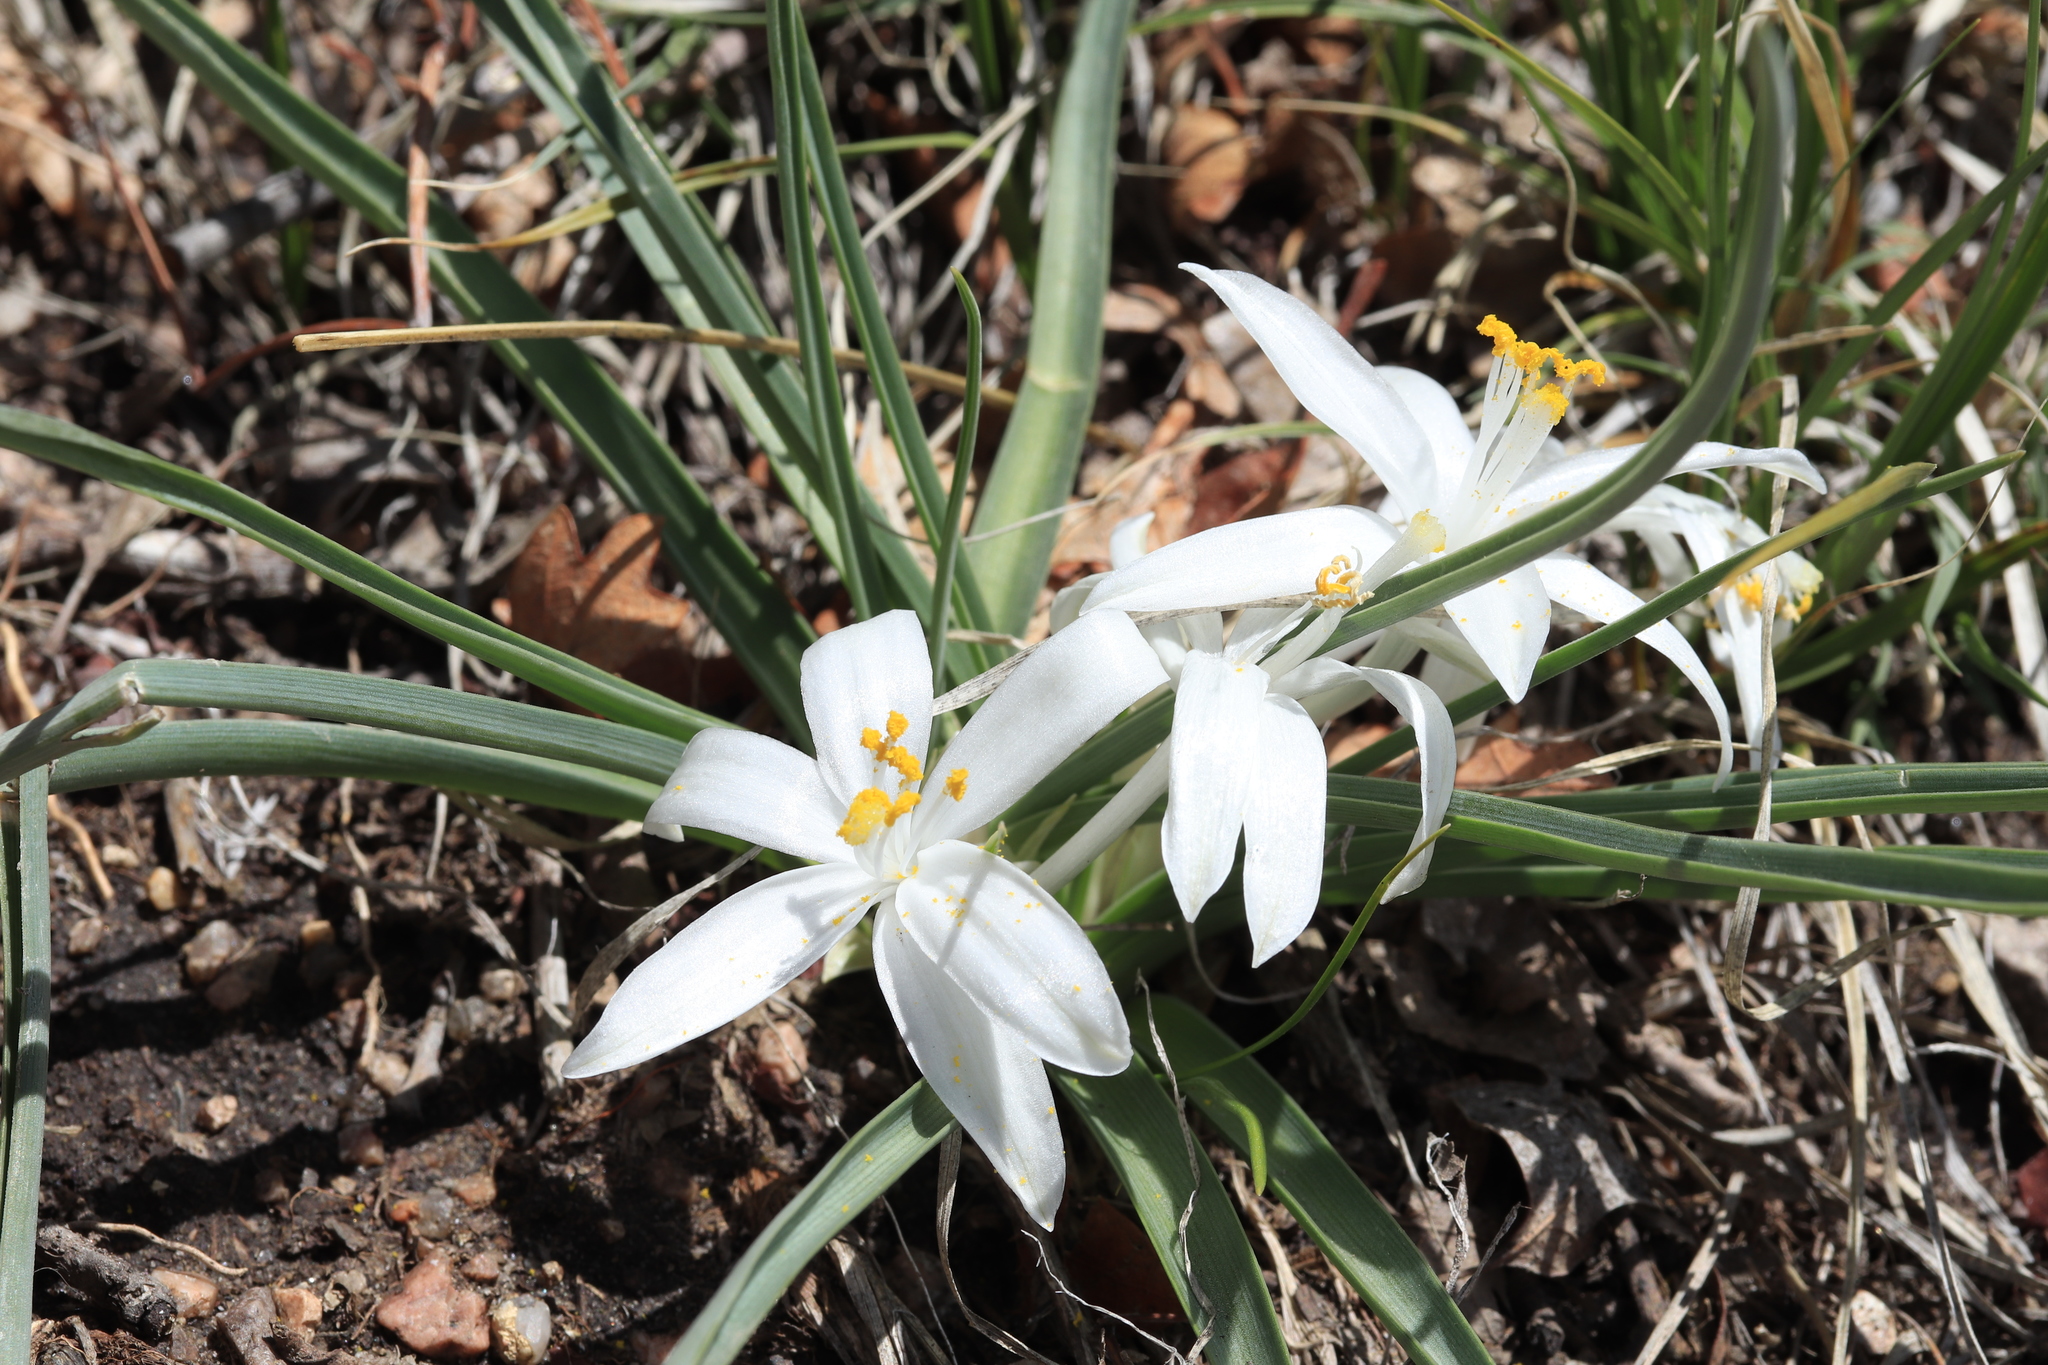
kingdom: Plantae
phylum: Tracheophyta
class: Liliopsida
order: Asparagales
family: Asparagaceae
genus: Leucocrinum
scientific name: Leucocrinum montanum
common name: Mountain-lily
